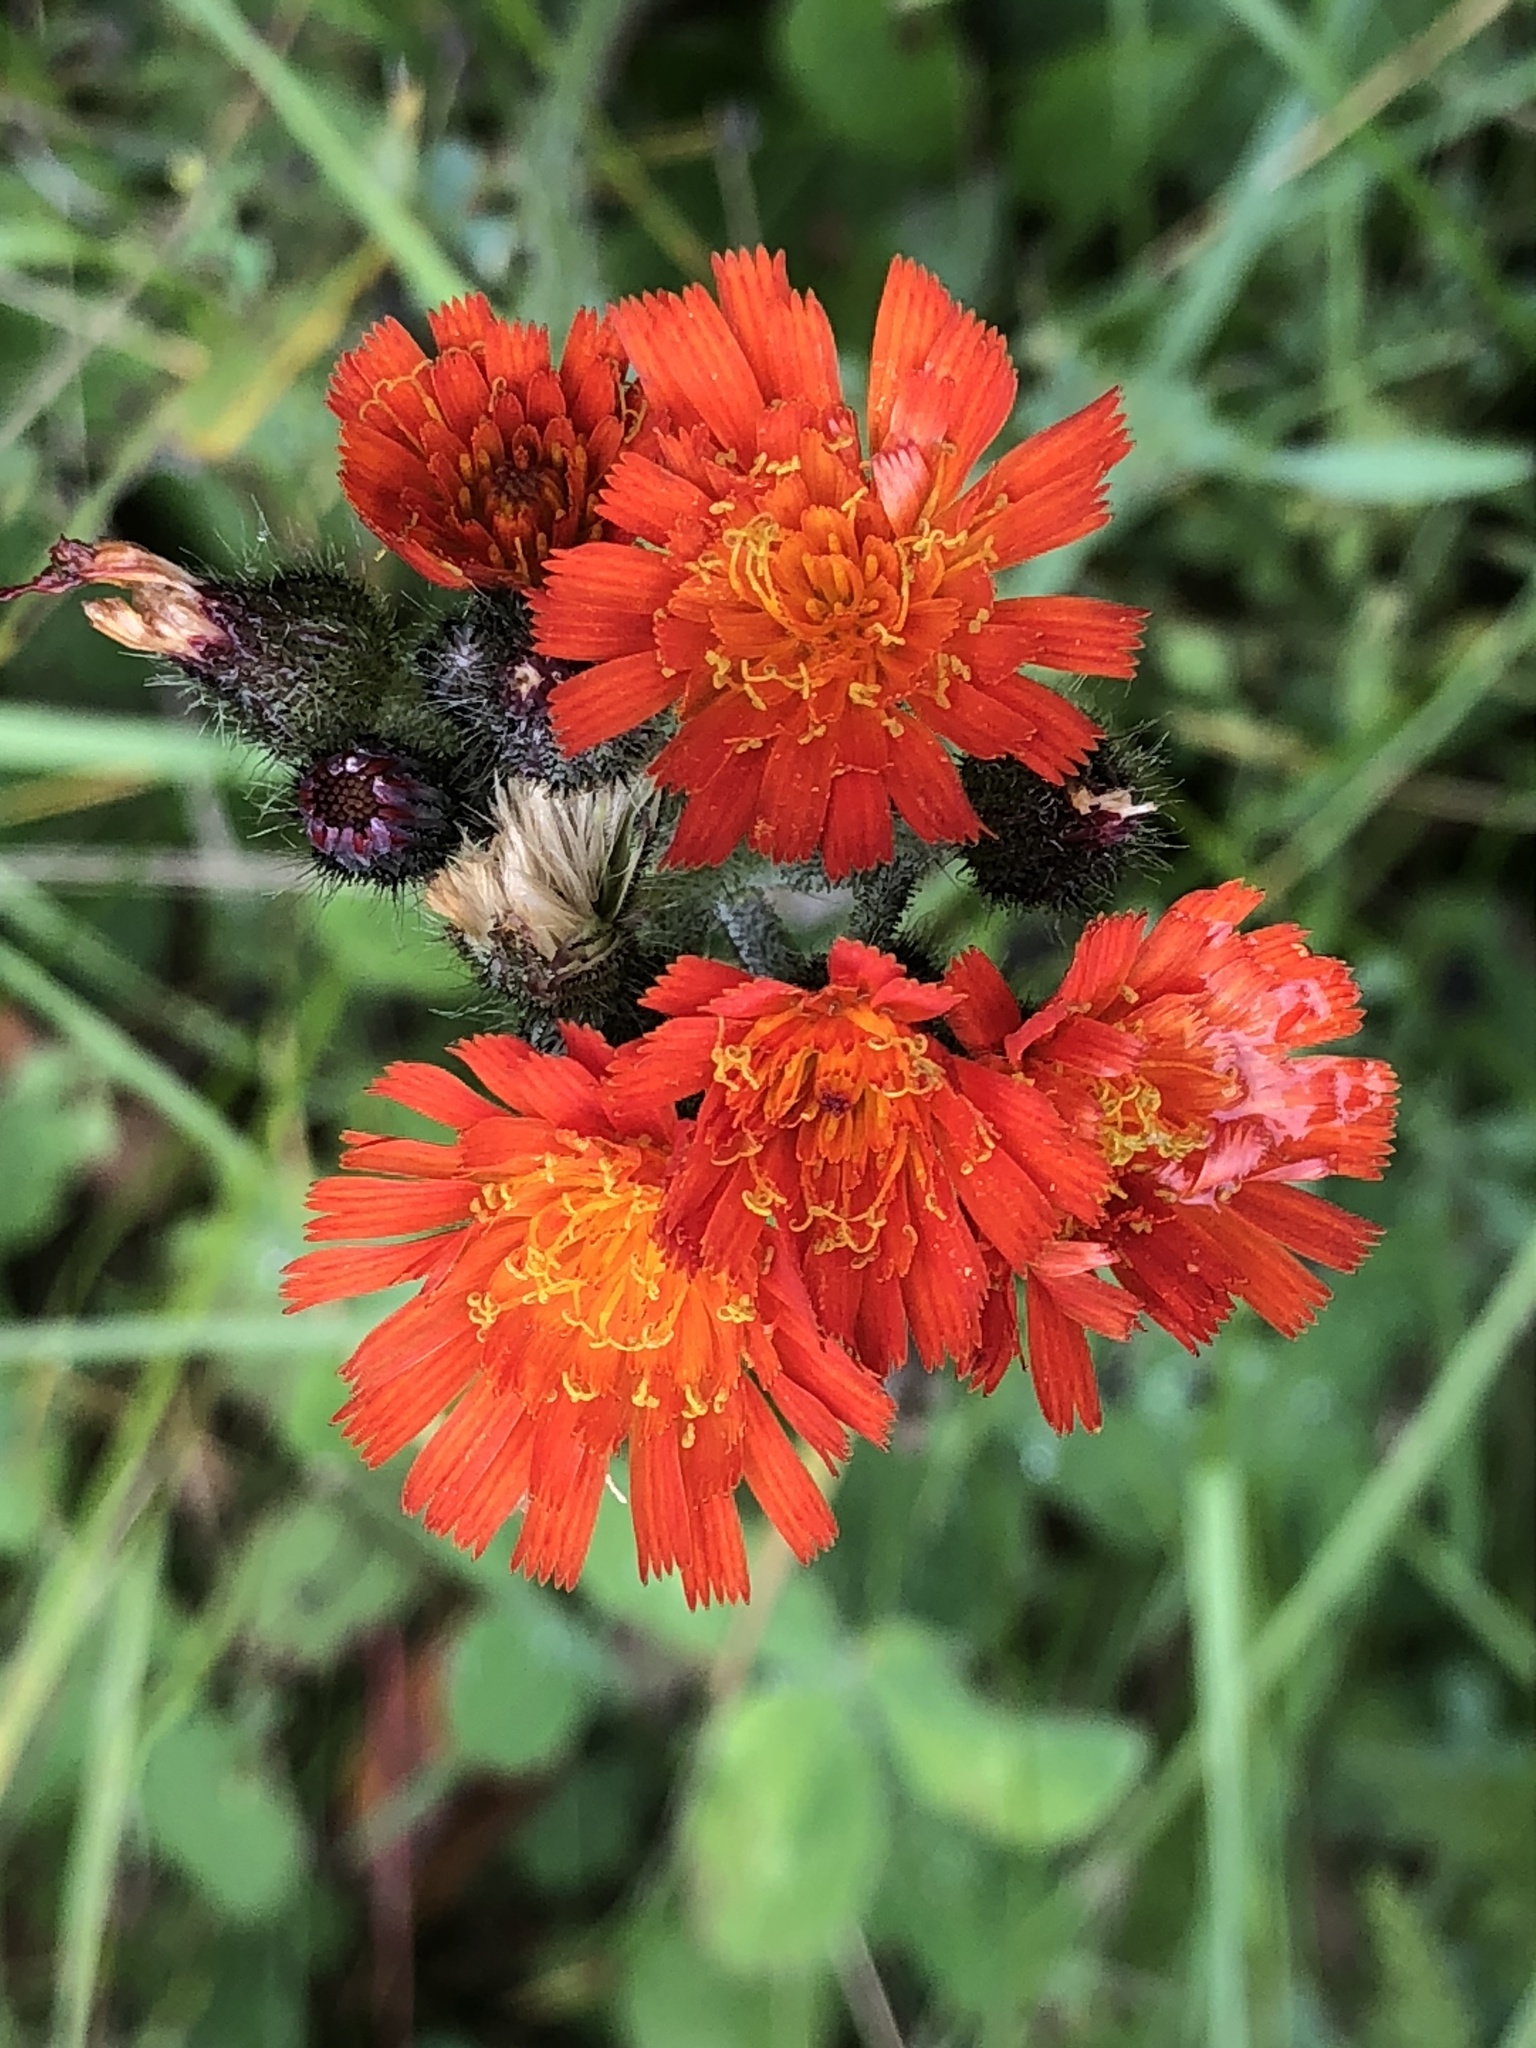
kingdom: Plantae
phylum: Tracheophyta
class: Magnoliopsida
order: Asterales
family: Asteraceae
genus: Pilosella
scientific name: Pilosella aurantiaca
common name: Fox-and-cubs
